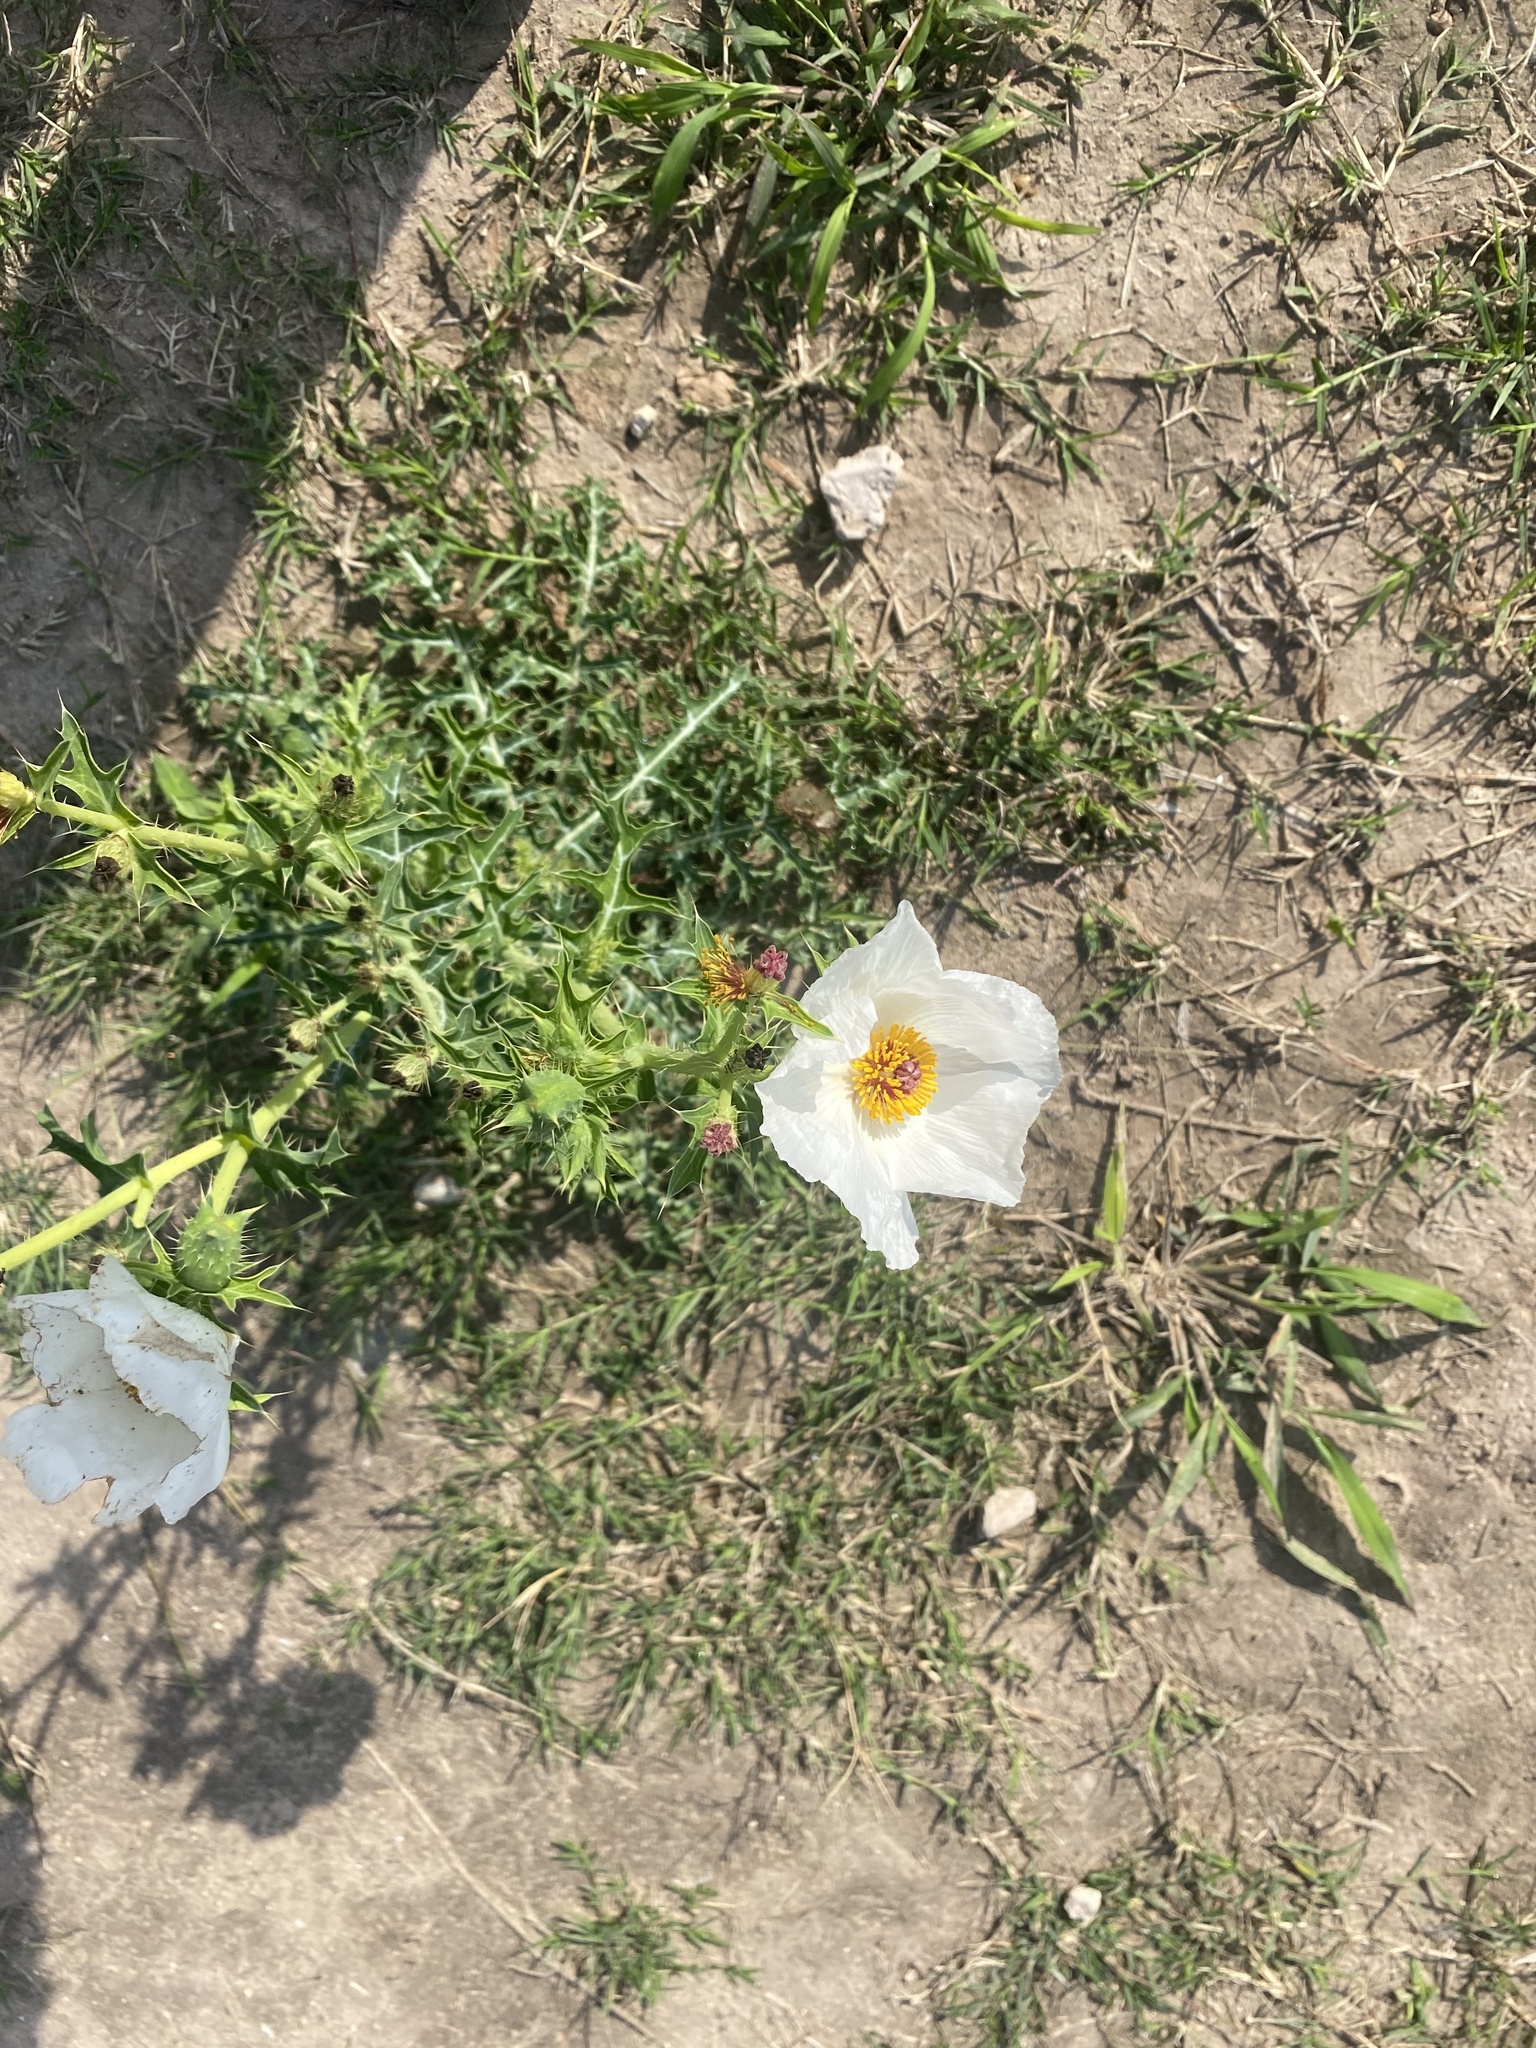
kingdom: Plantae
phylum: Tracheophyta
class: Magnoliopsida
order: Ranunculales
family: Papaveraceae
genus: Argemone
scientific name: Argemone sanguinea
